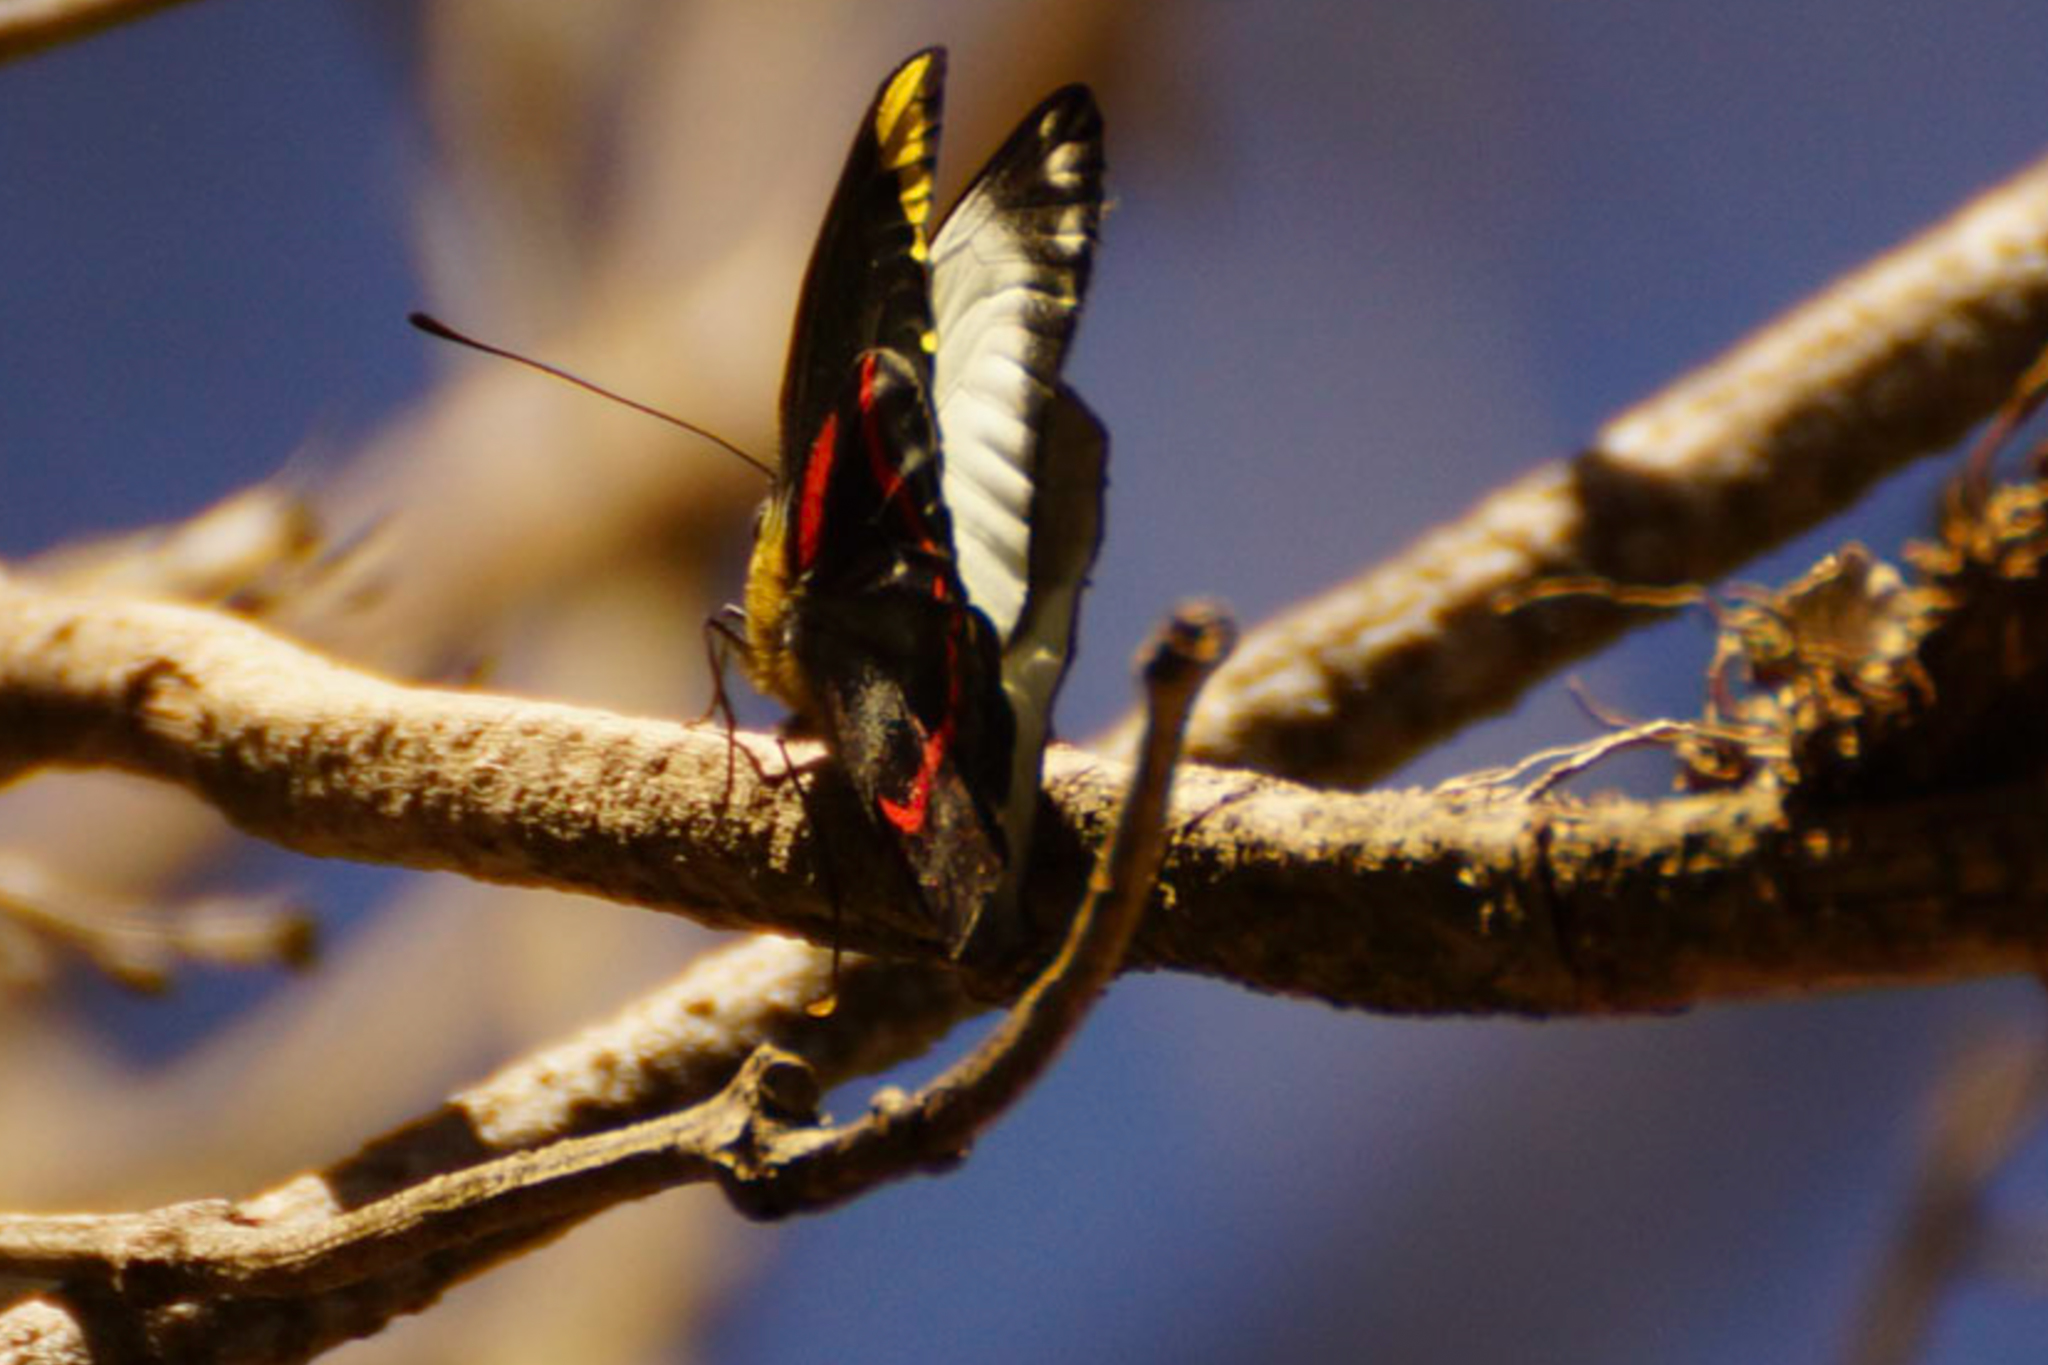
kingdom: Animalia
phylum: Arthropoda
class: Insecta
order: Lepidoptera
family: Pieridae
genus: Delias
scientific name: Delias nigrina
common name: Black jezebel
